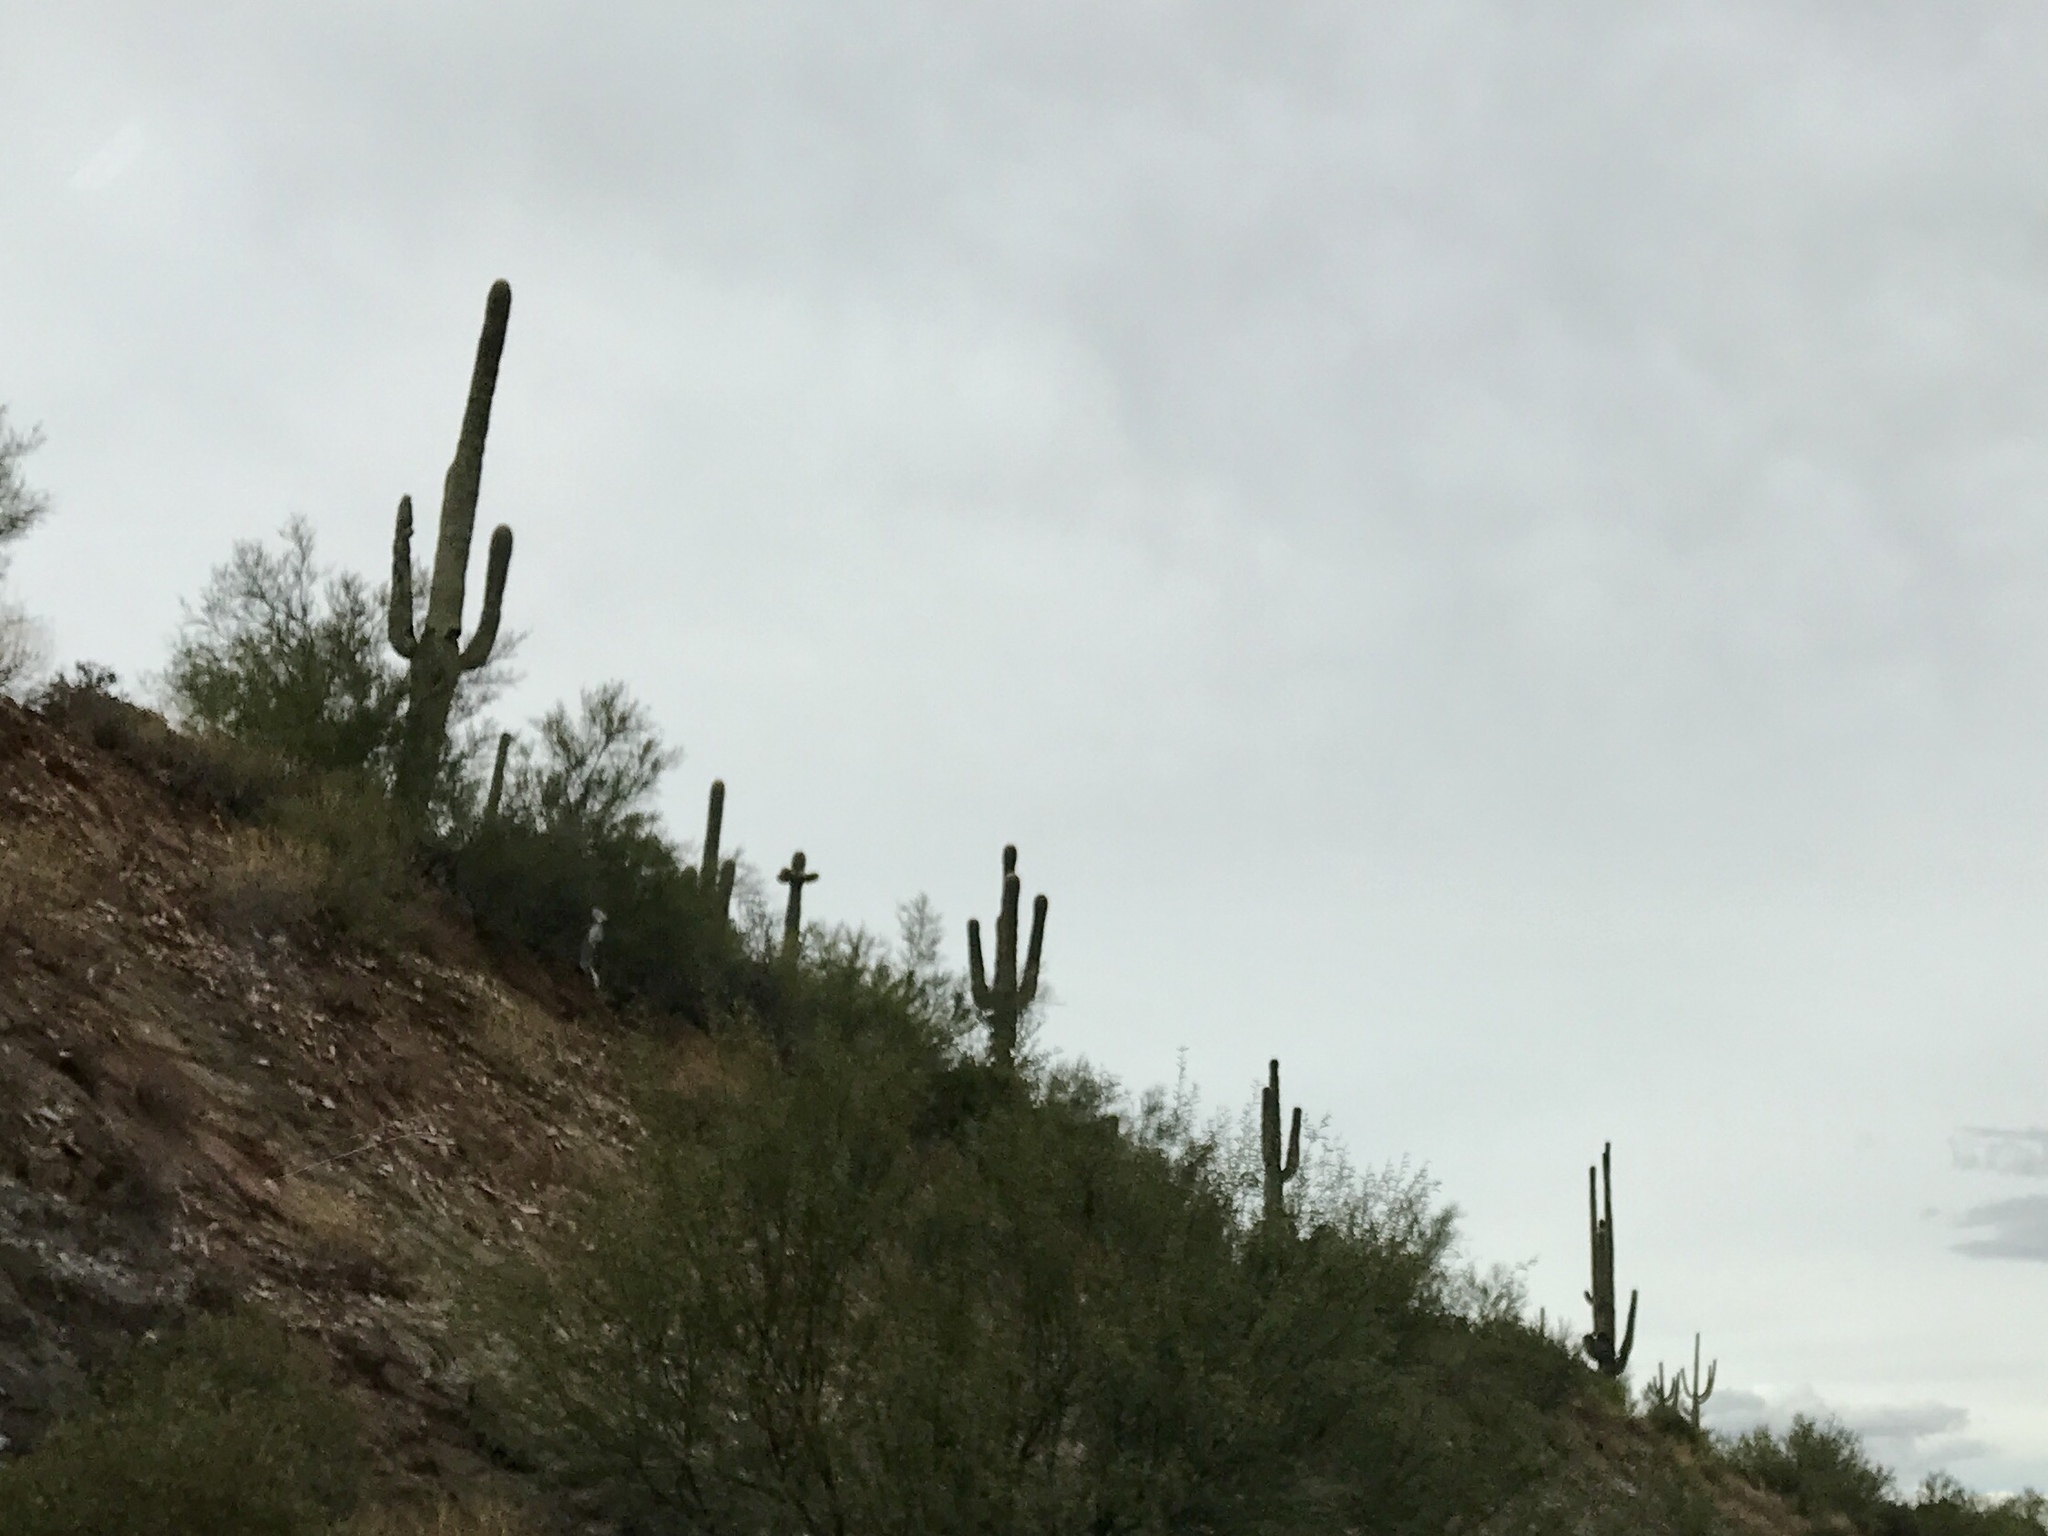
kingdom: Plantae
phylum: Tracheophyta
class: Magnoliopsida
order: Caryophyllales
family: Cactaceae
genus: Carnegiea
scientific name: Carnegiea gigantea
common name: Saguaro
